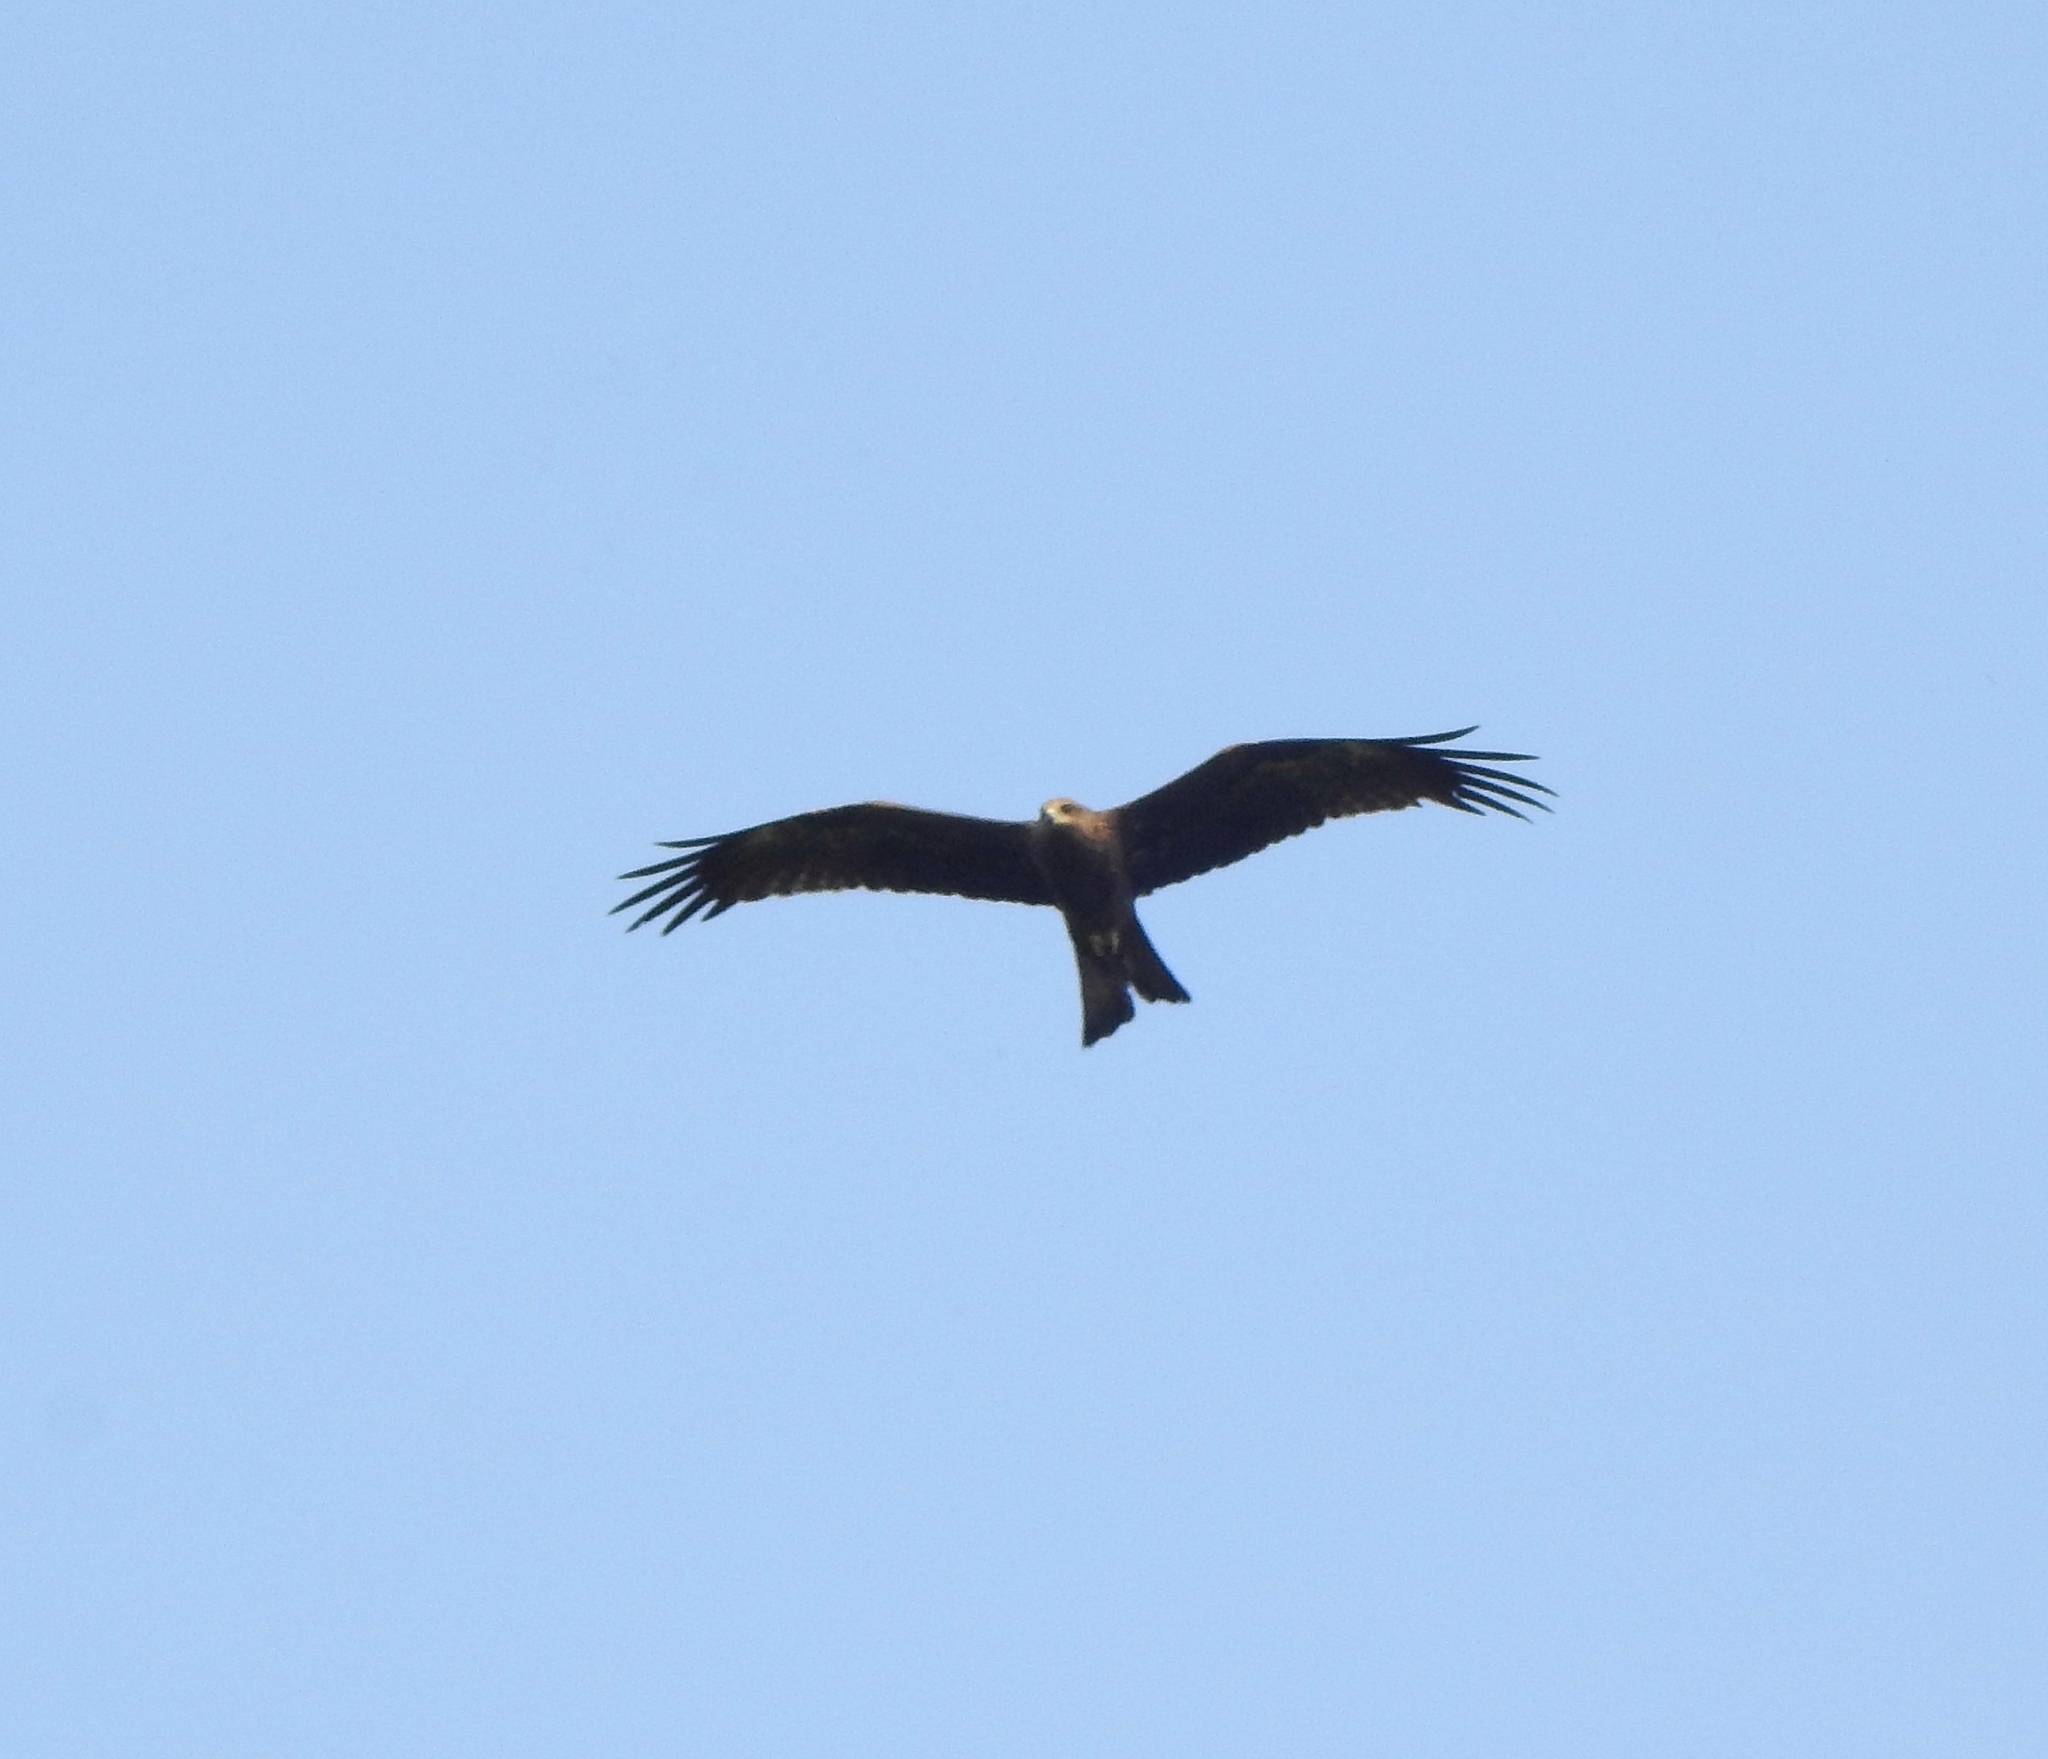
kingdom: Animalia
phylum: Chordata
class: Aves
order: Accipitriformes
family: Accipitridae
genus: Milvus
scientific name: Milvus migrans
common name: Black kite
